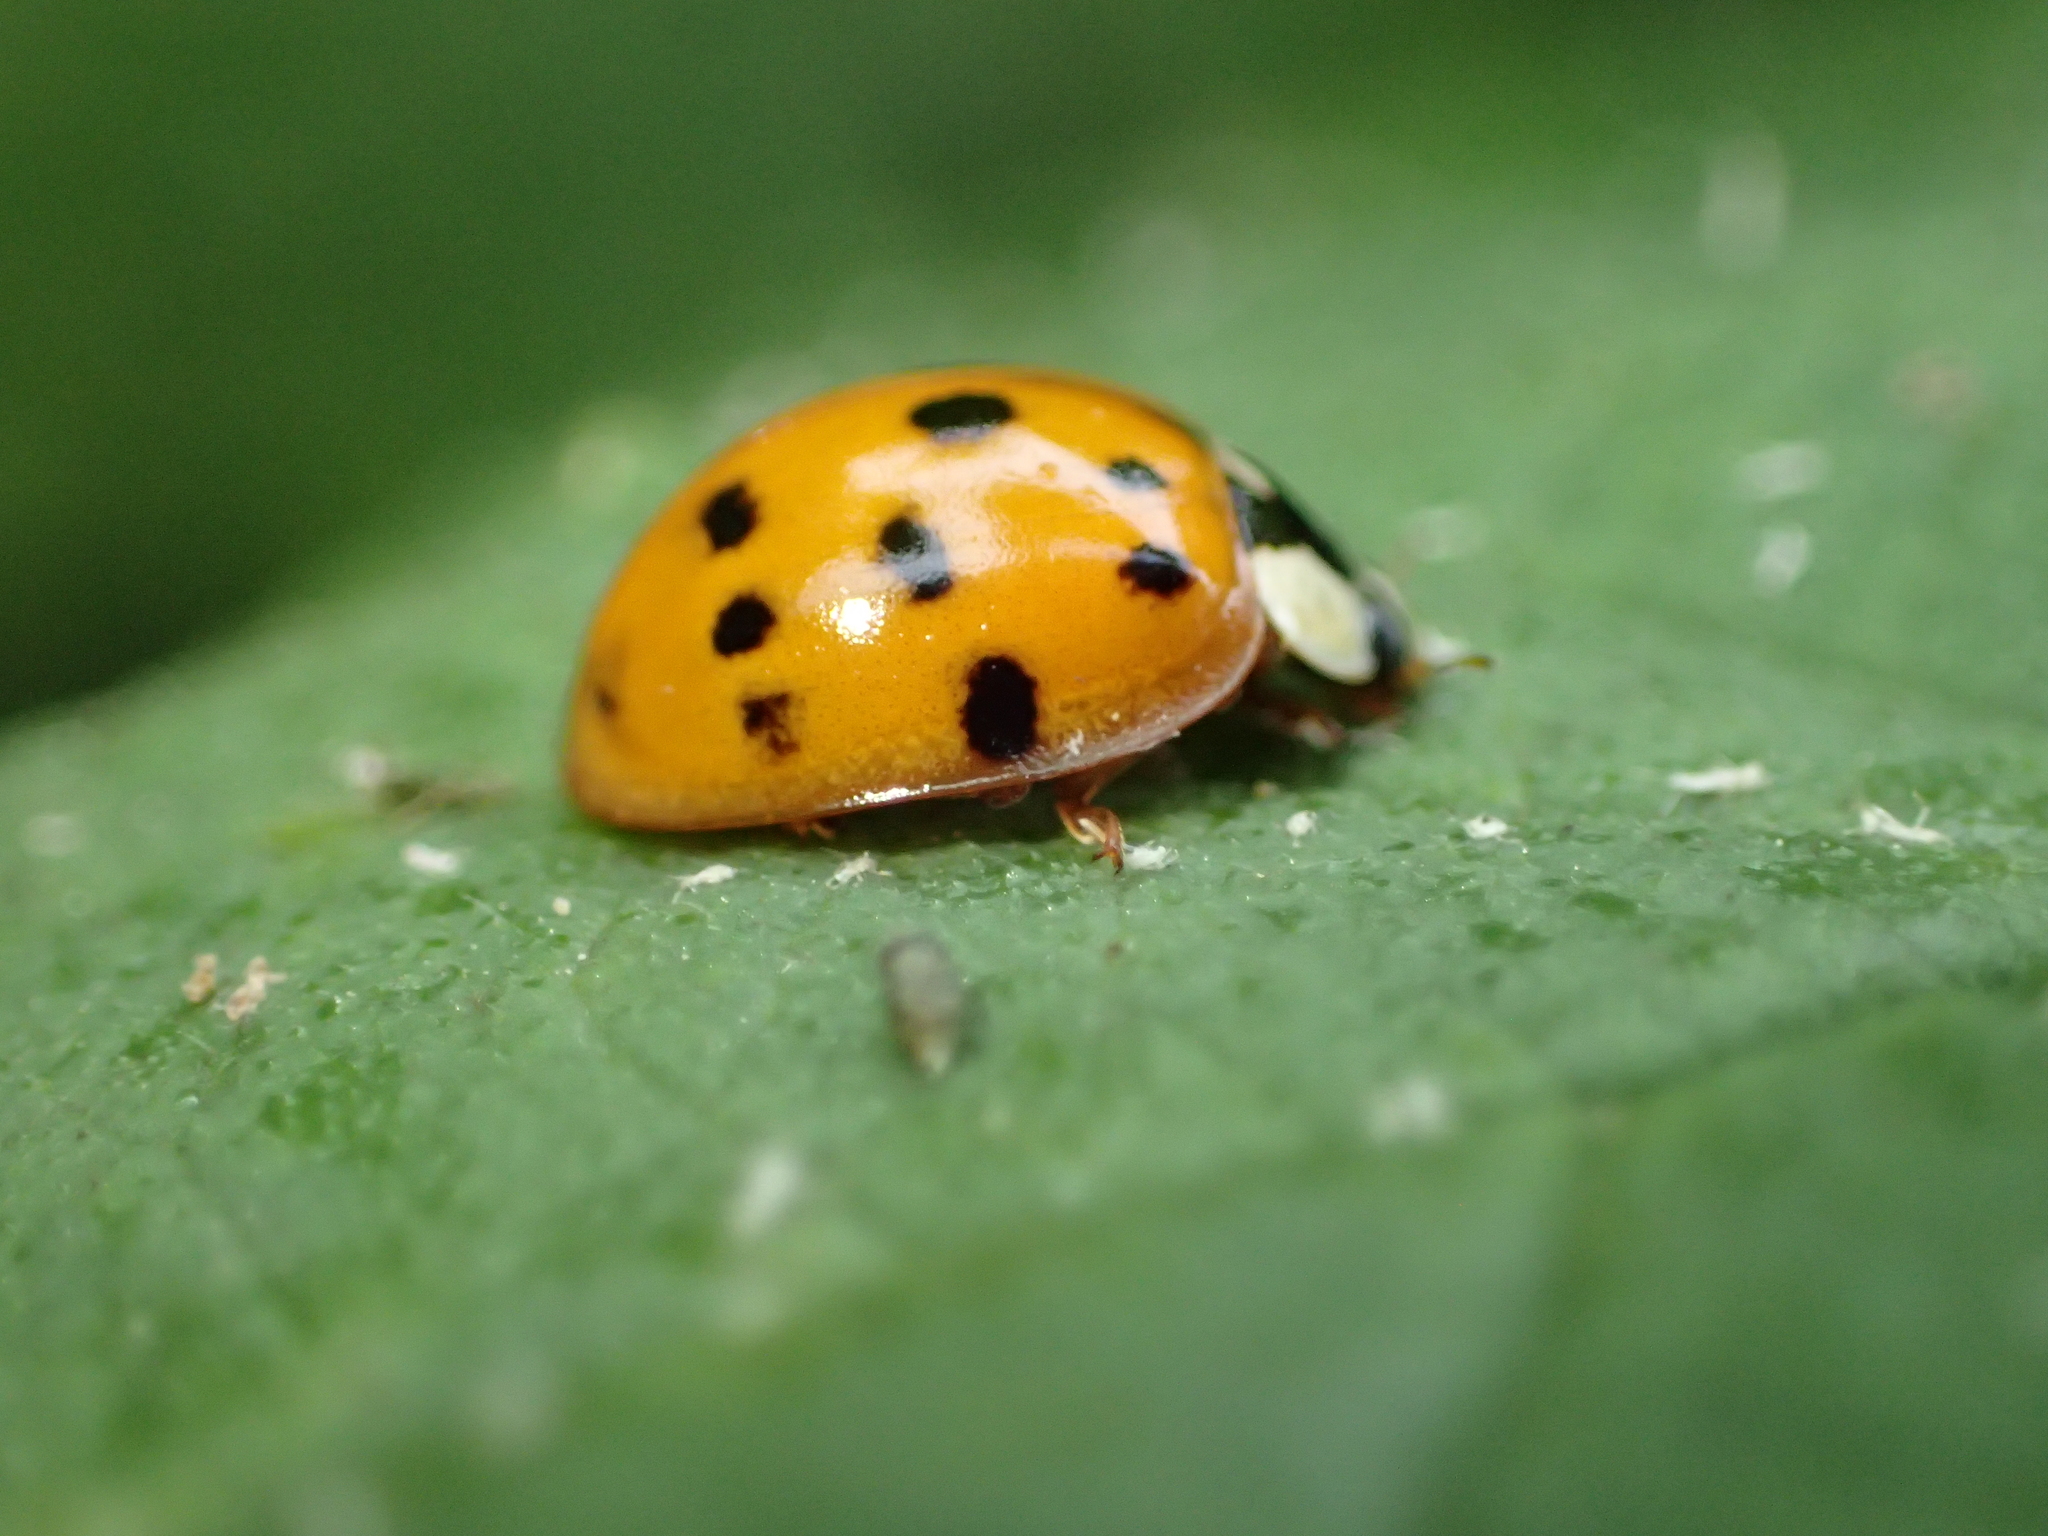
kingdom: Animalia
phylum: Arthropoda
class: Insecta
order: Coleoptera
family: Coccinellidae
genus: Harmonia
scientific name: Harmonia axyridis
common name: Harlequin ladybird
